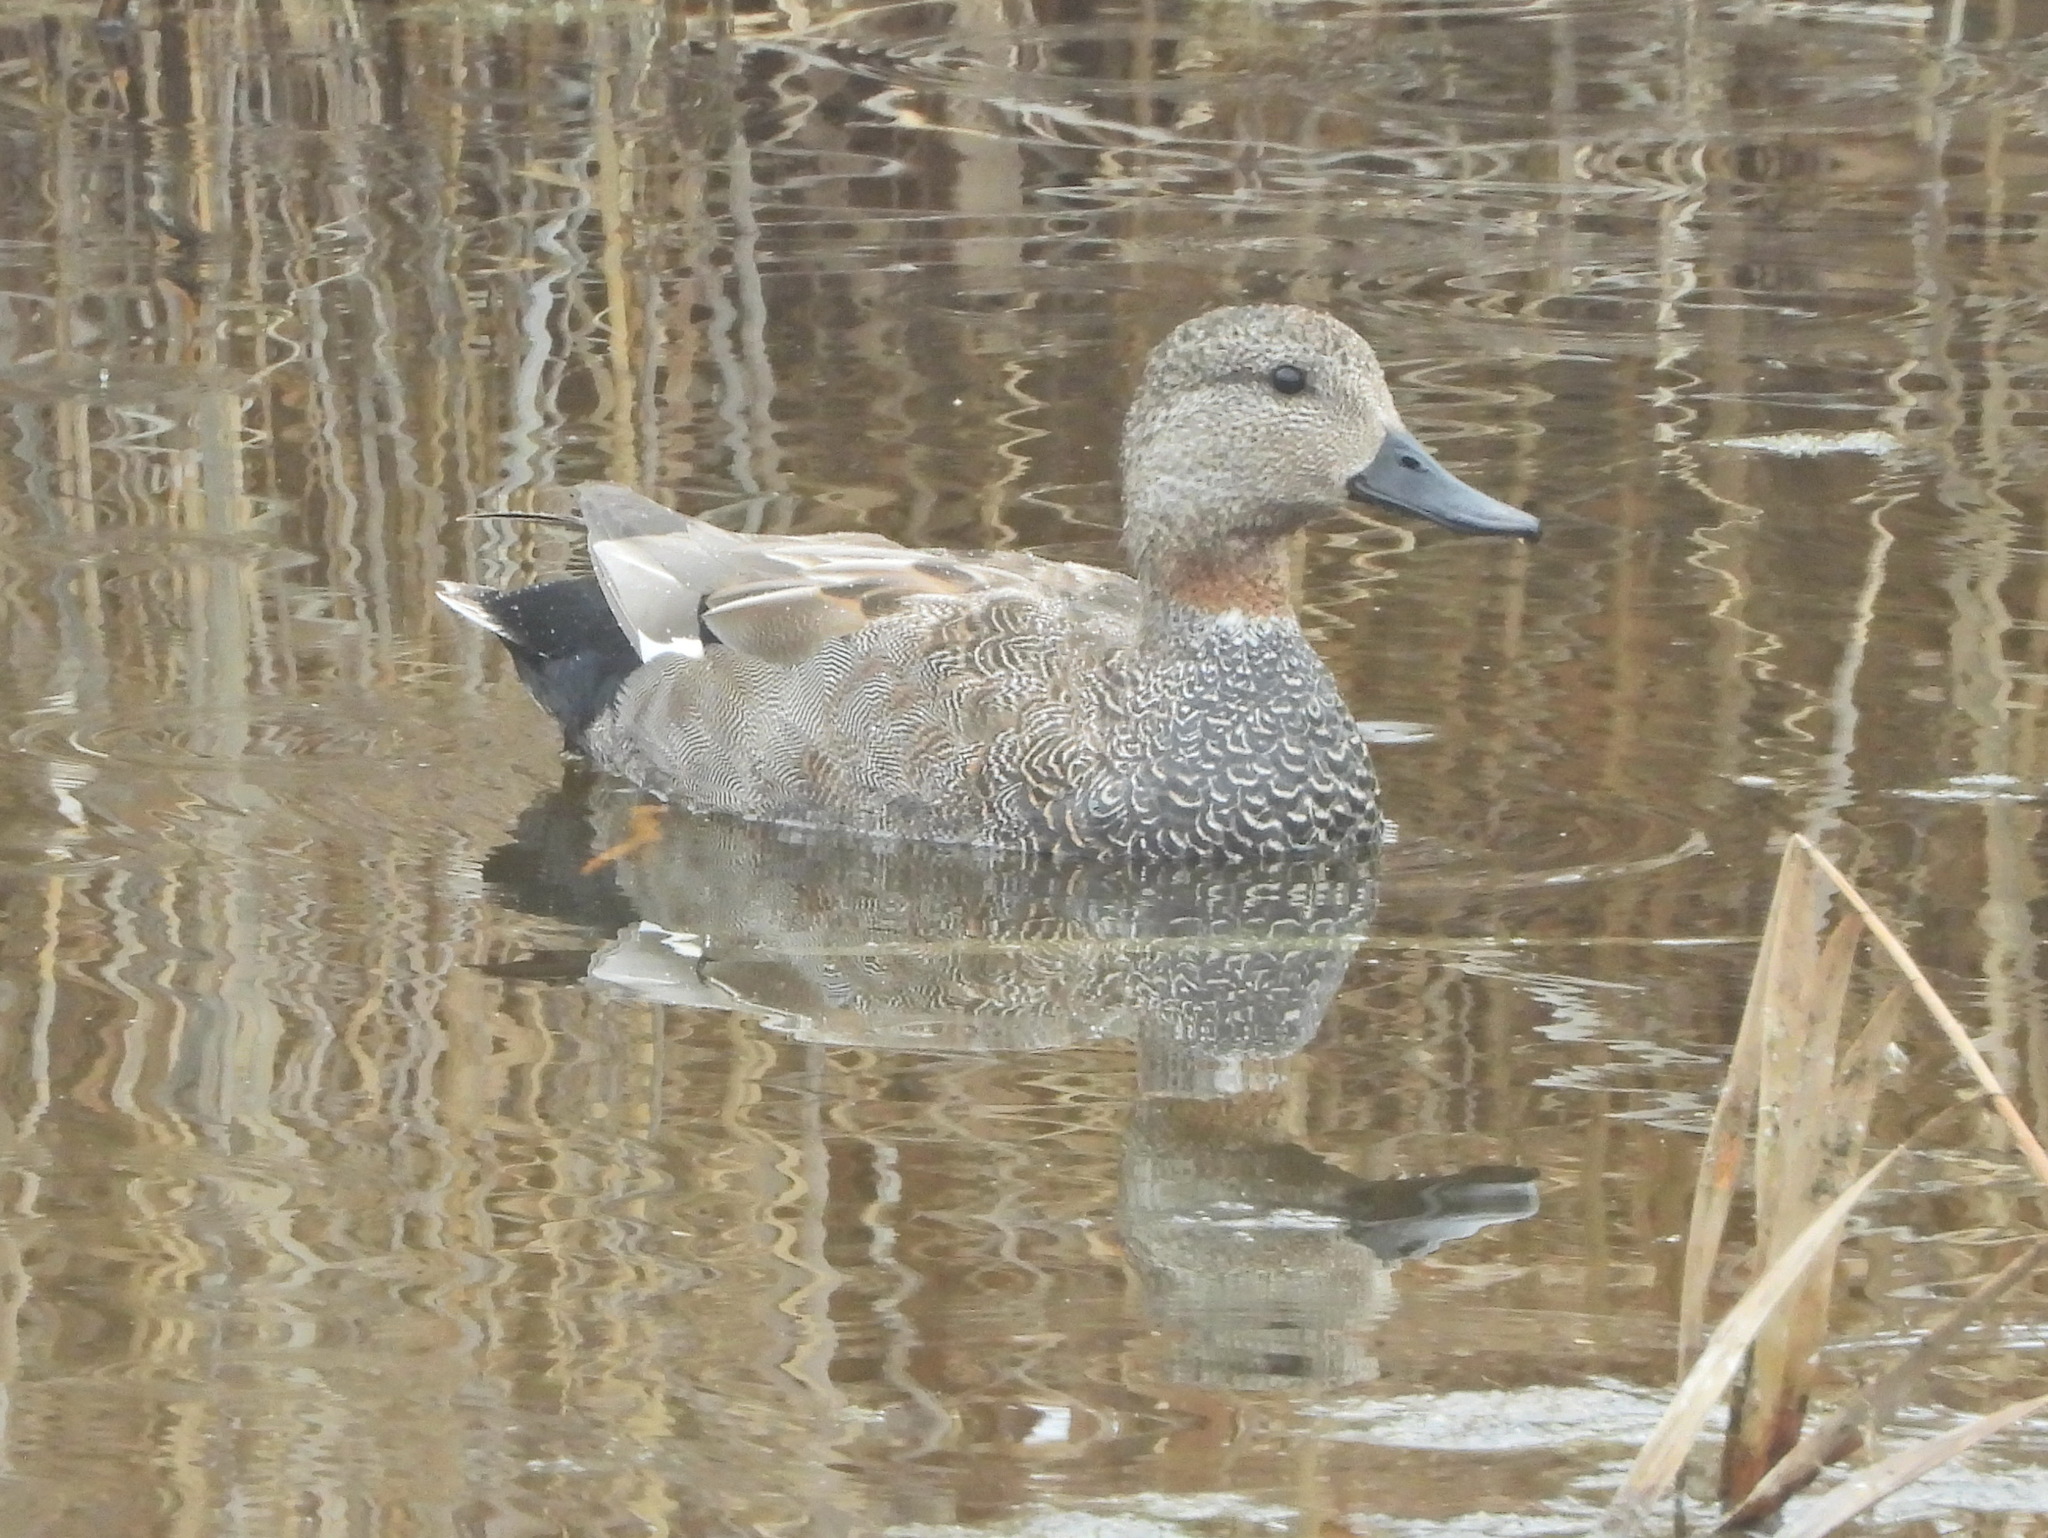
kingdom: Animalia
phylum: Chordata
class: Aves
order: Anseriformes
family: Anatidae
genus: Mareca
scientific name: Mareca strepera
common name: Gadwall
